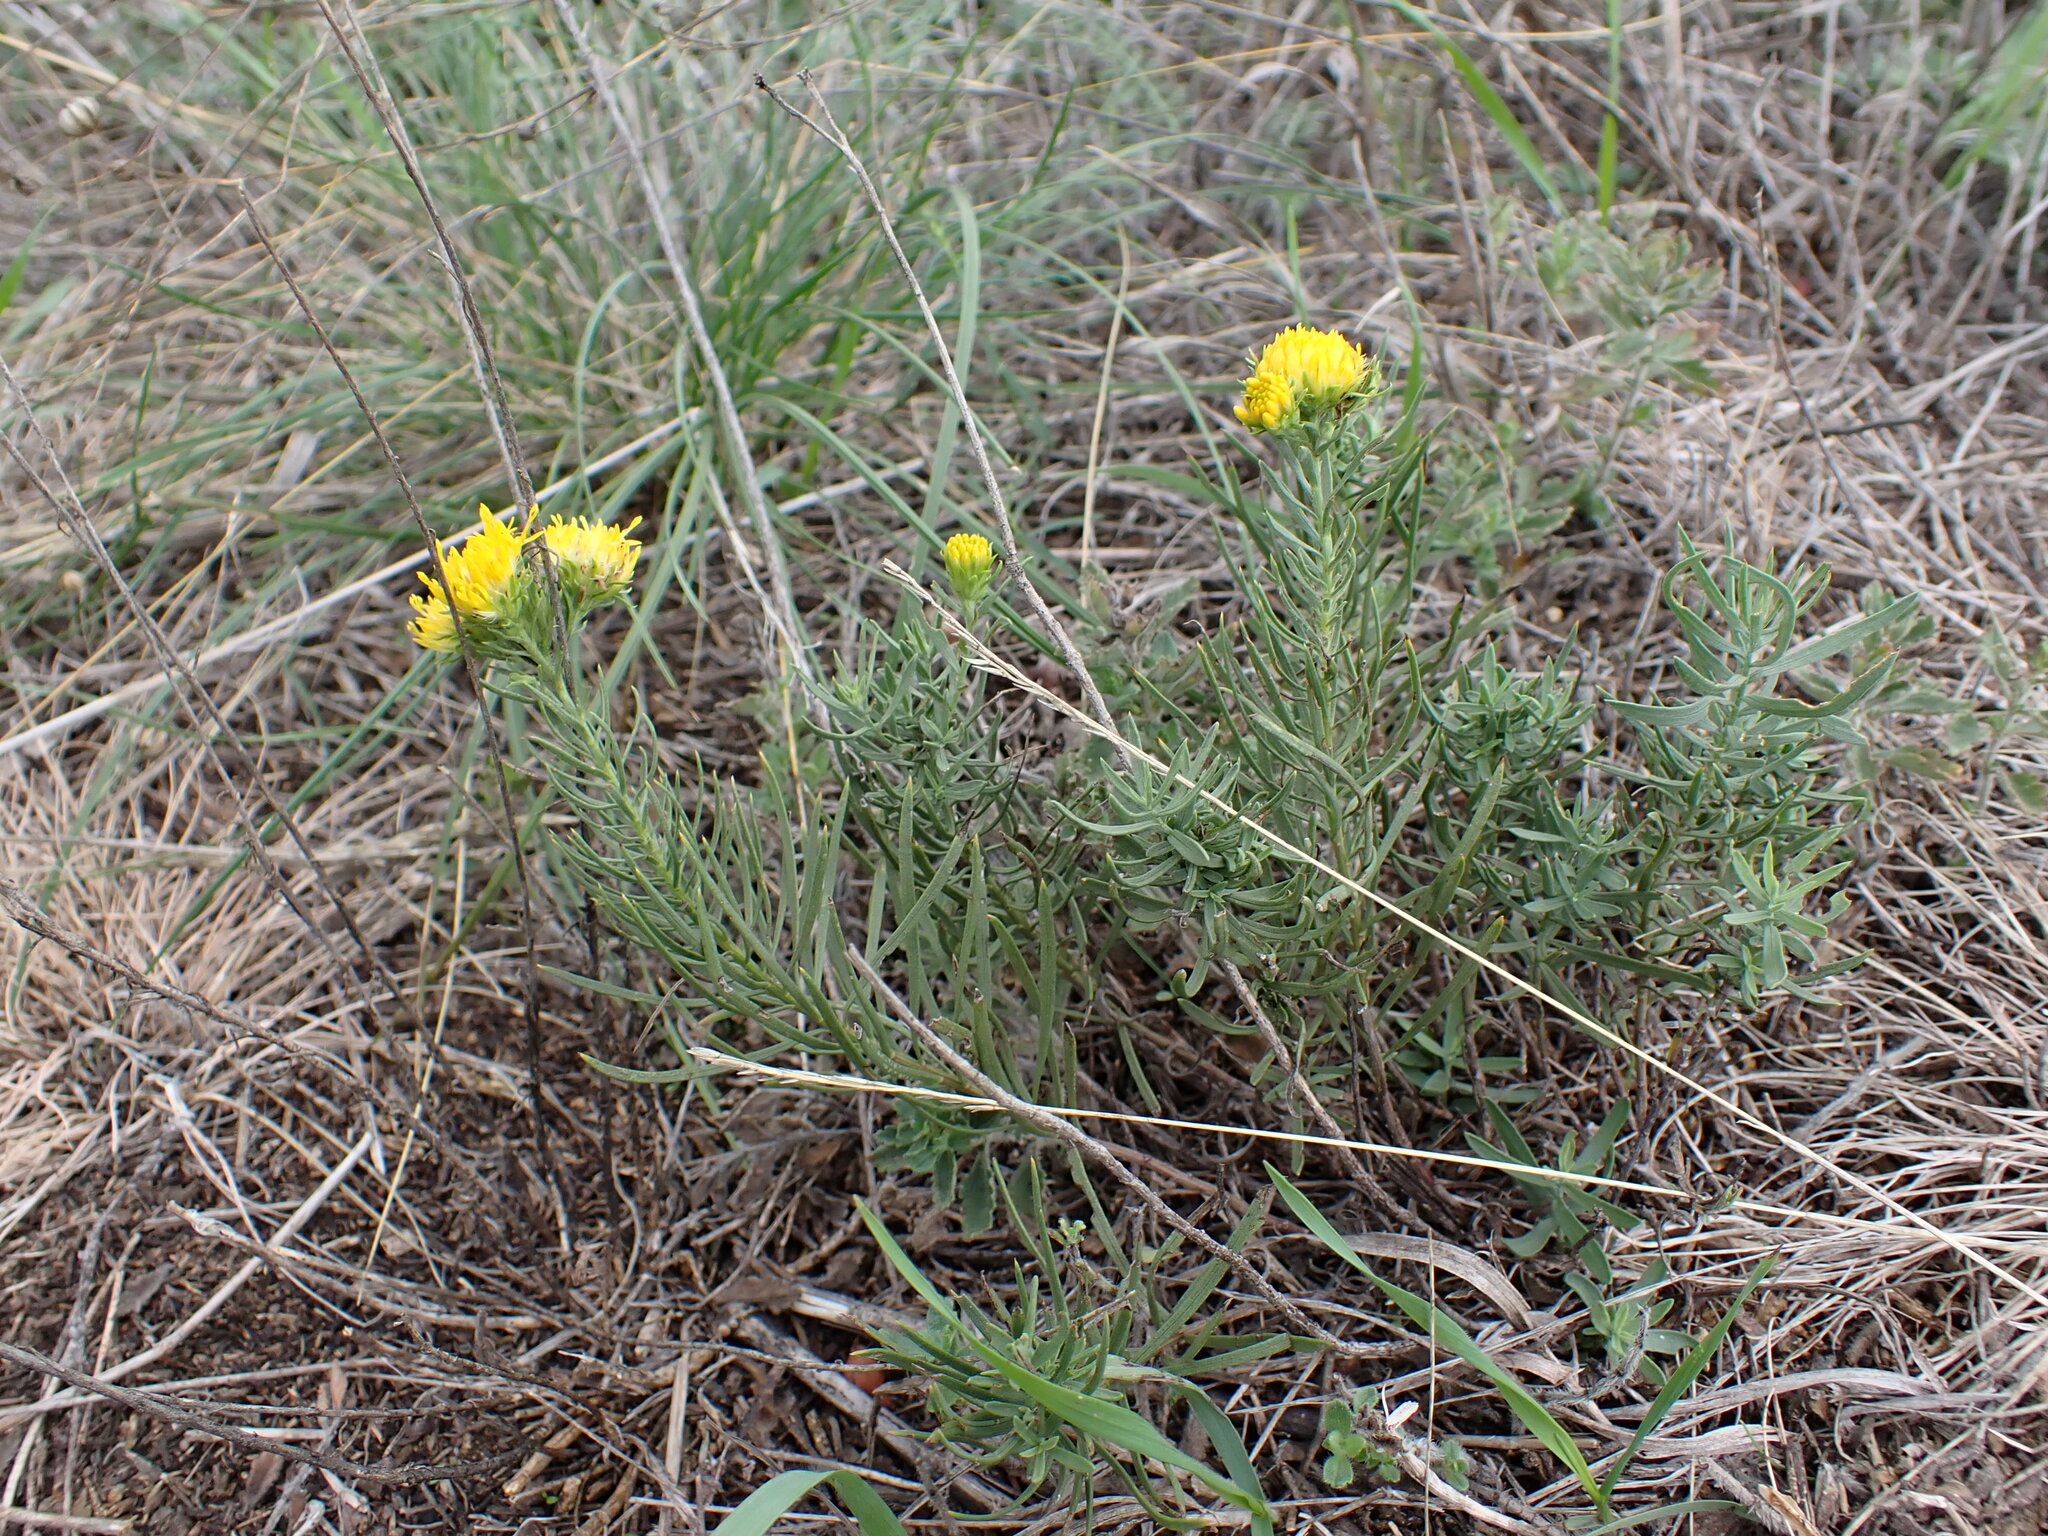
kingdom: Plantae
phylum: Tracheophyta
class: Magnoliopsida
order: Asterales
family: Asteraceae
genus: Galatella
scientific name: Galatella linosyris
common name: Goldilocks aster
